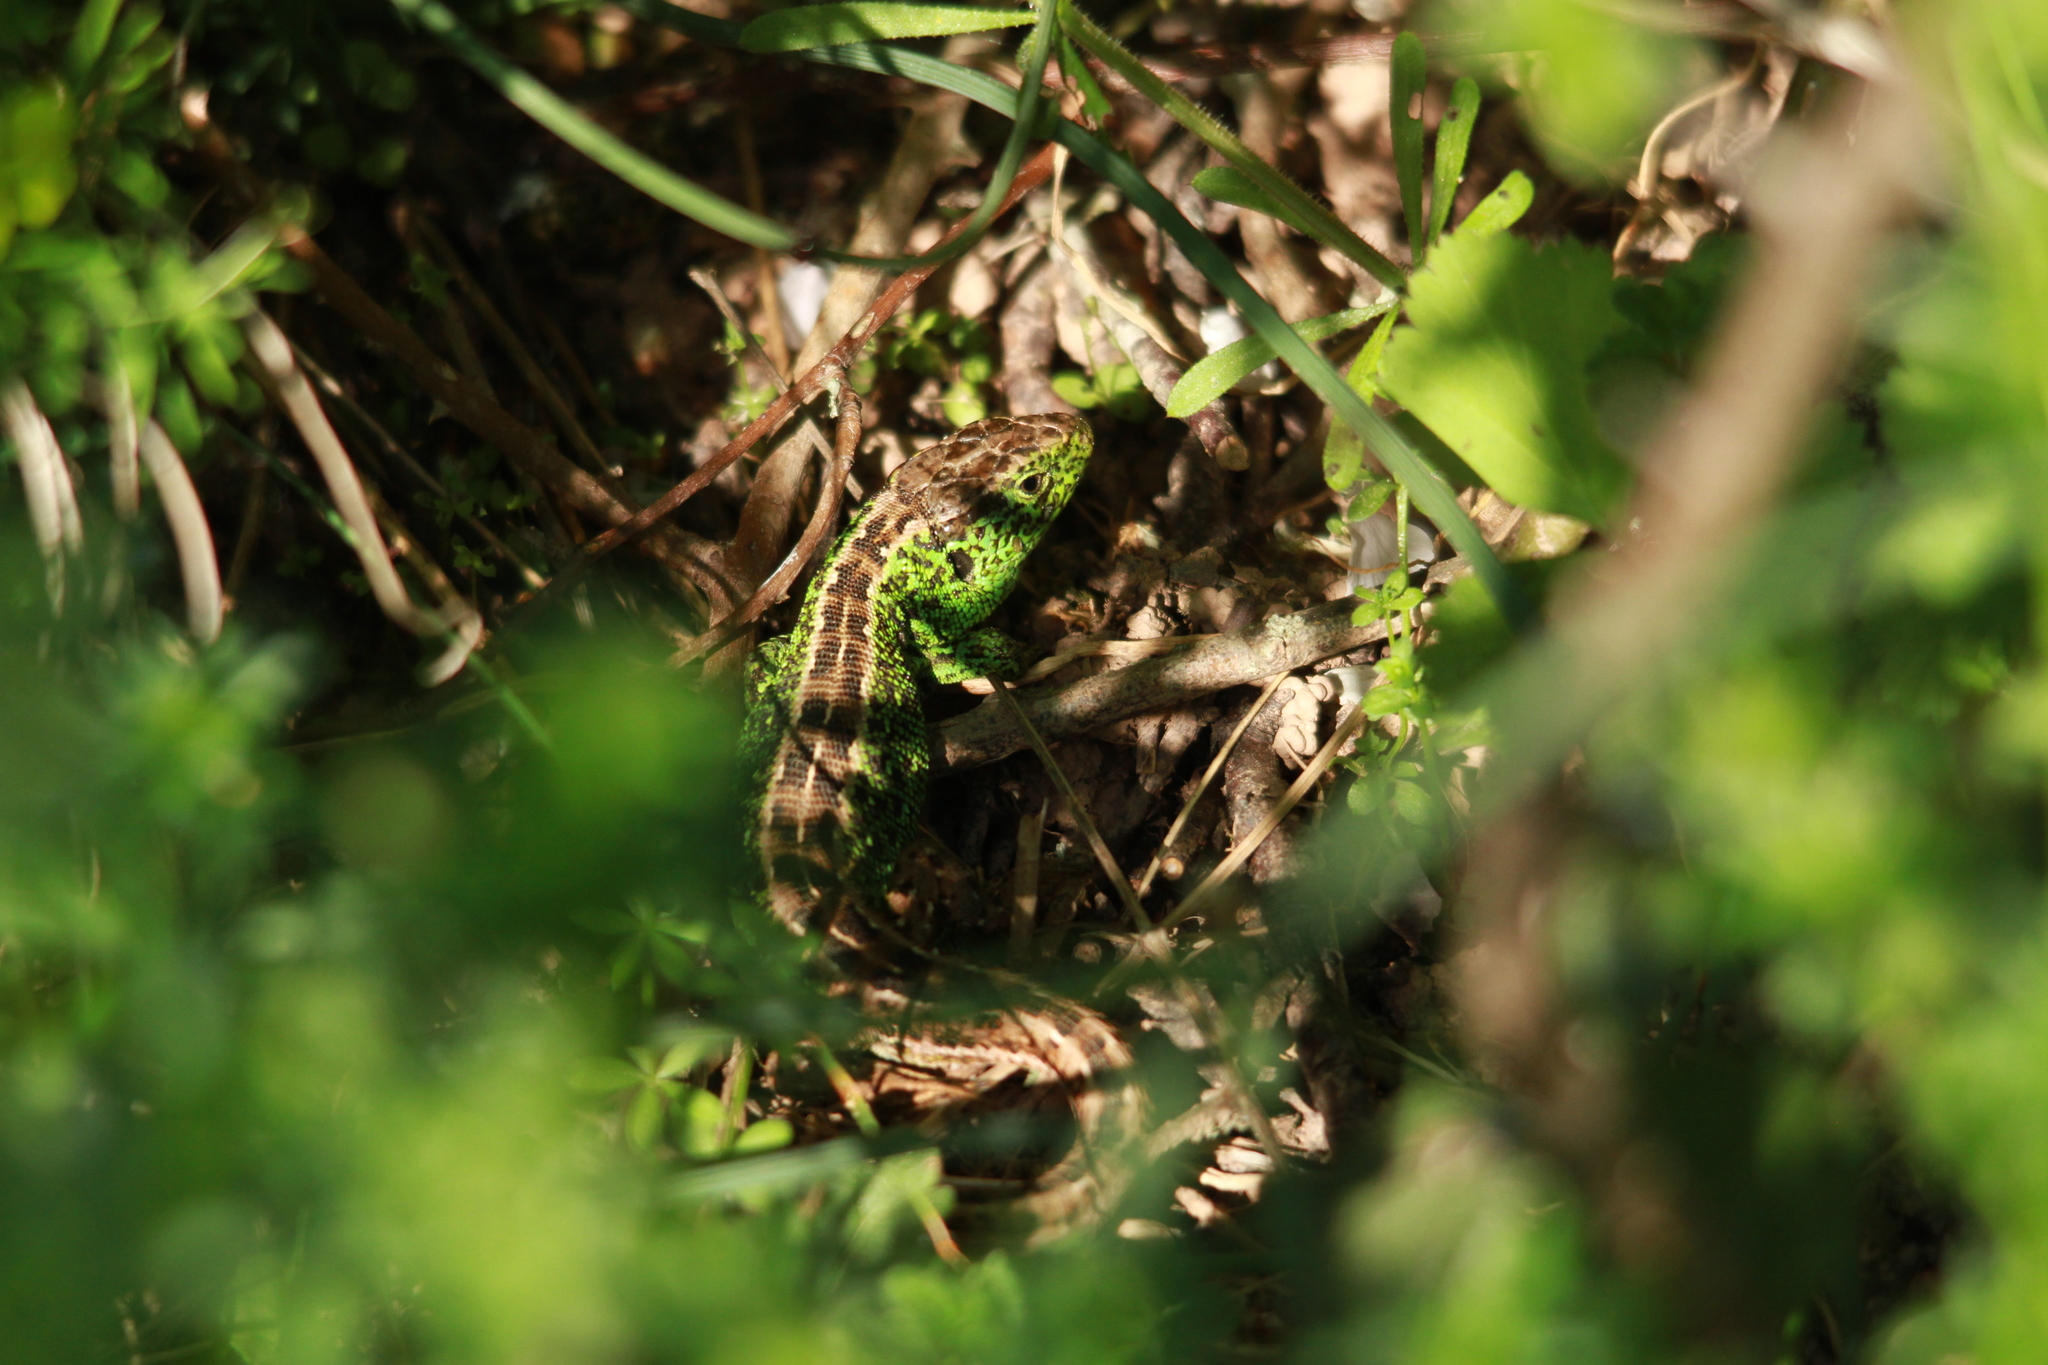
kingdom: Animalia
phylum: Chordata
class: Squamata
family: Lacertidae
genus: Lacerta
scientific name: Lacerta agilis
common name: Sand lizard
